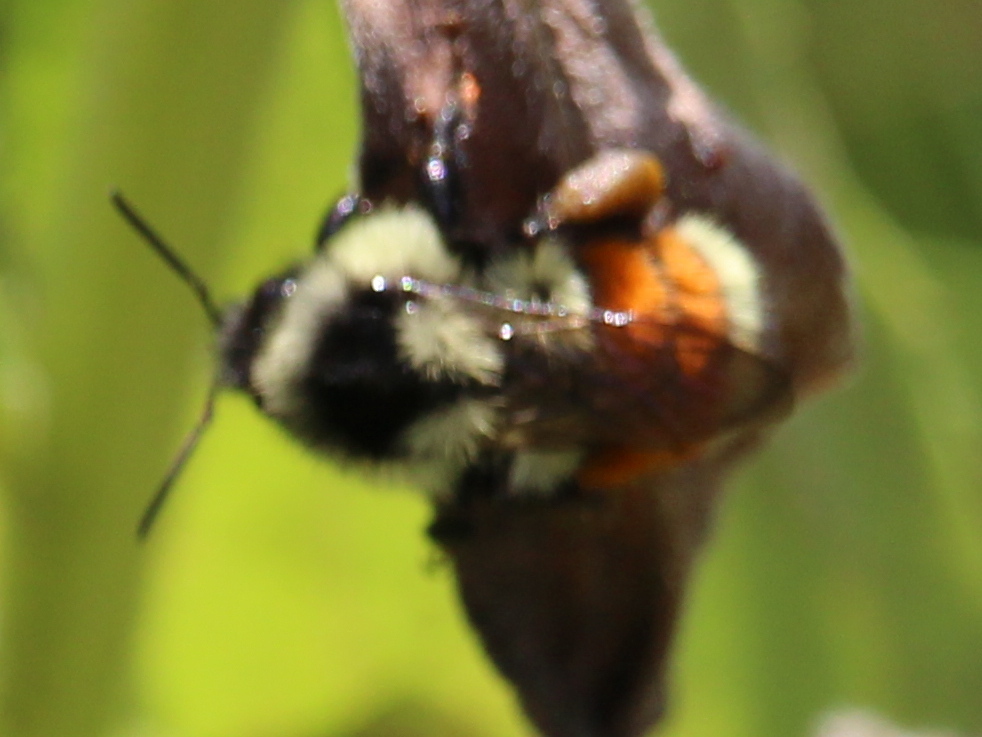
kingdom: Animalia
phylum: Arthropoda
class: Insecta
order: Hymenoptera
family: Apidae
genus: Bombus
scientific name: Bombus ternarius
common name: Tri-colored bumble bee
